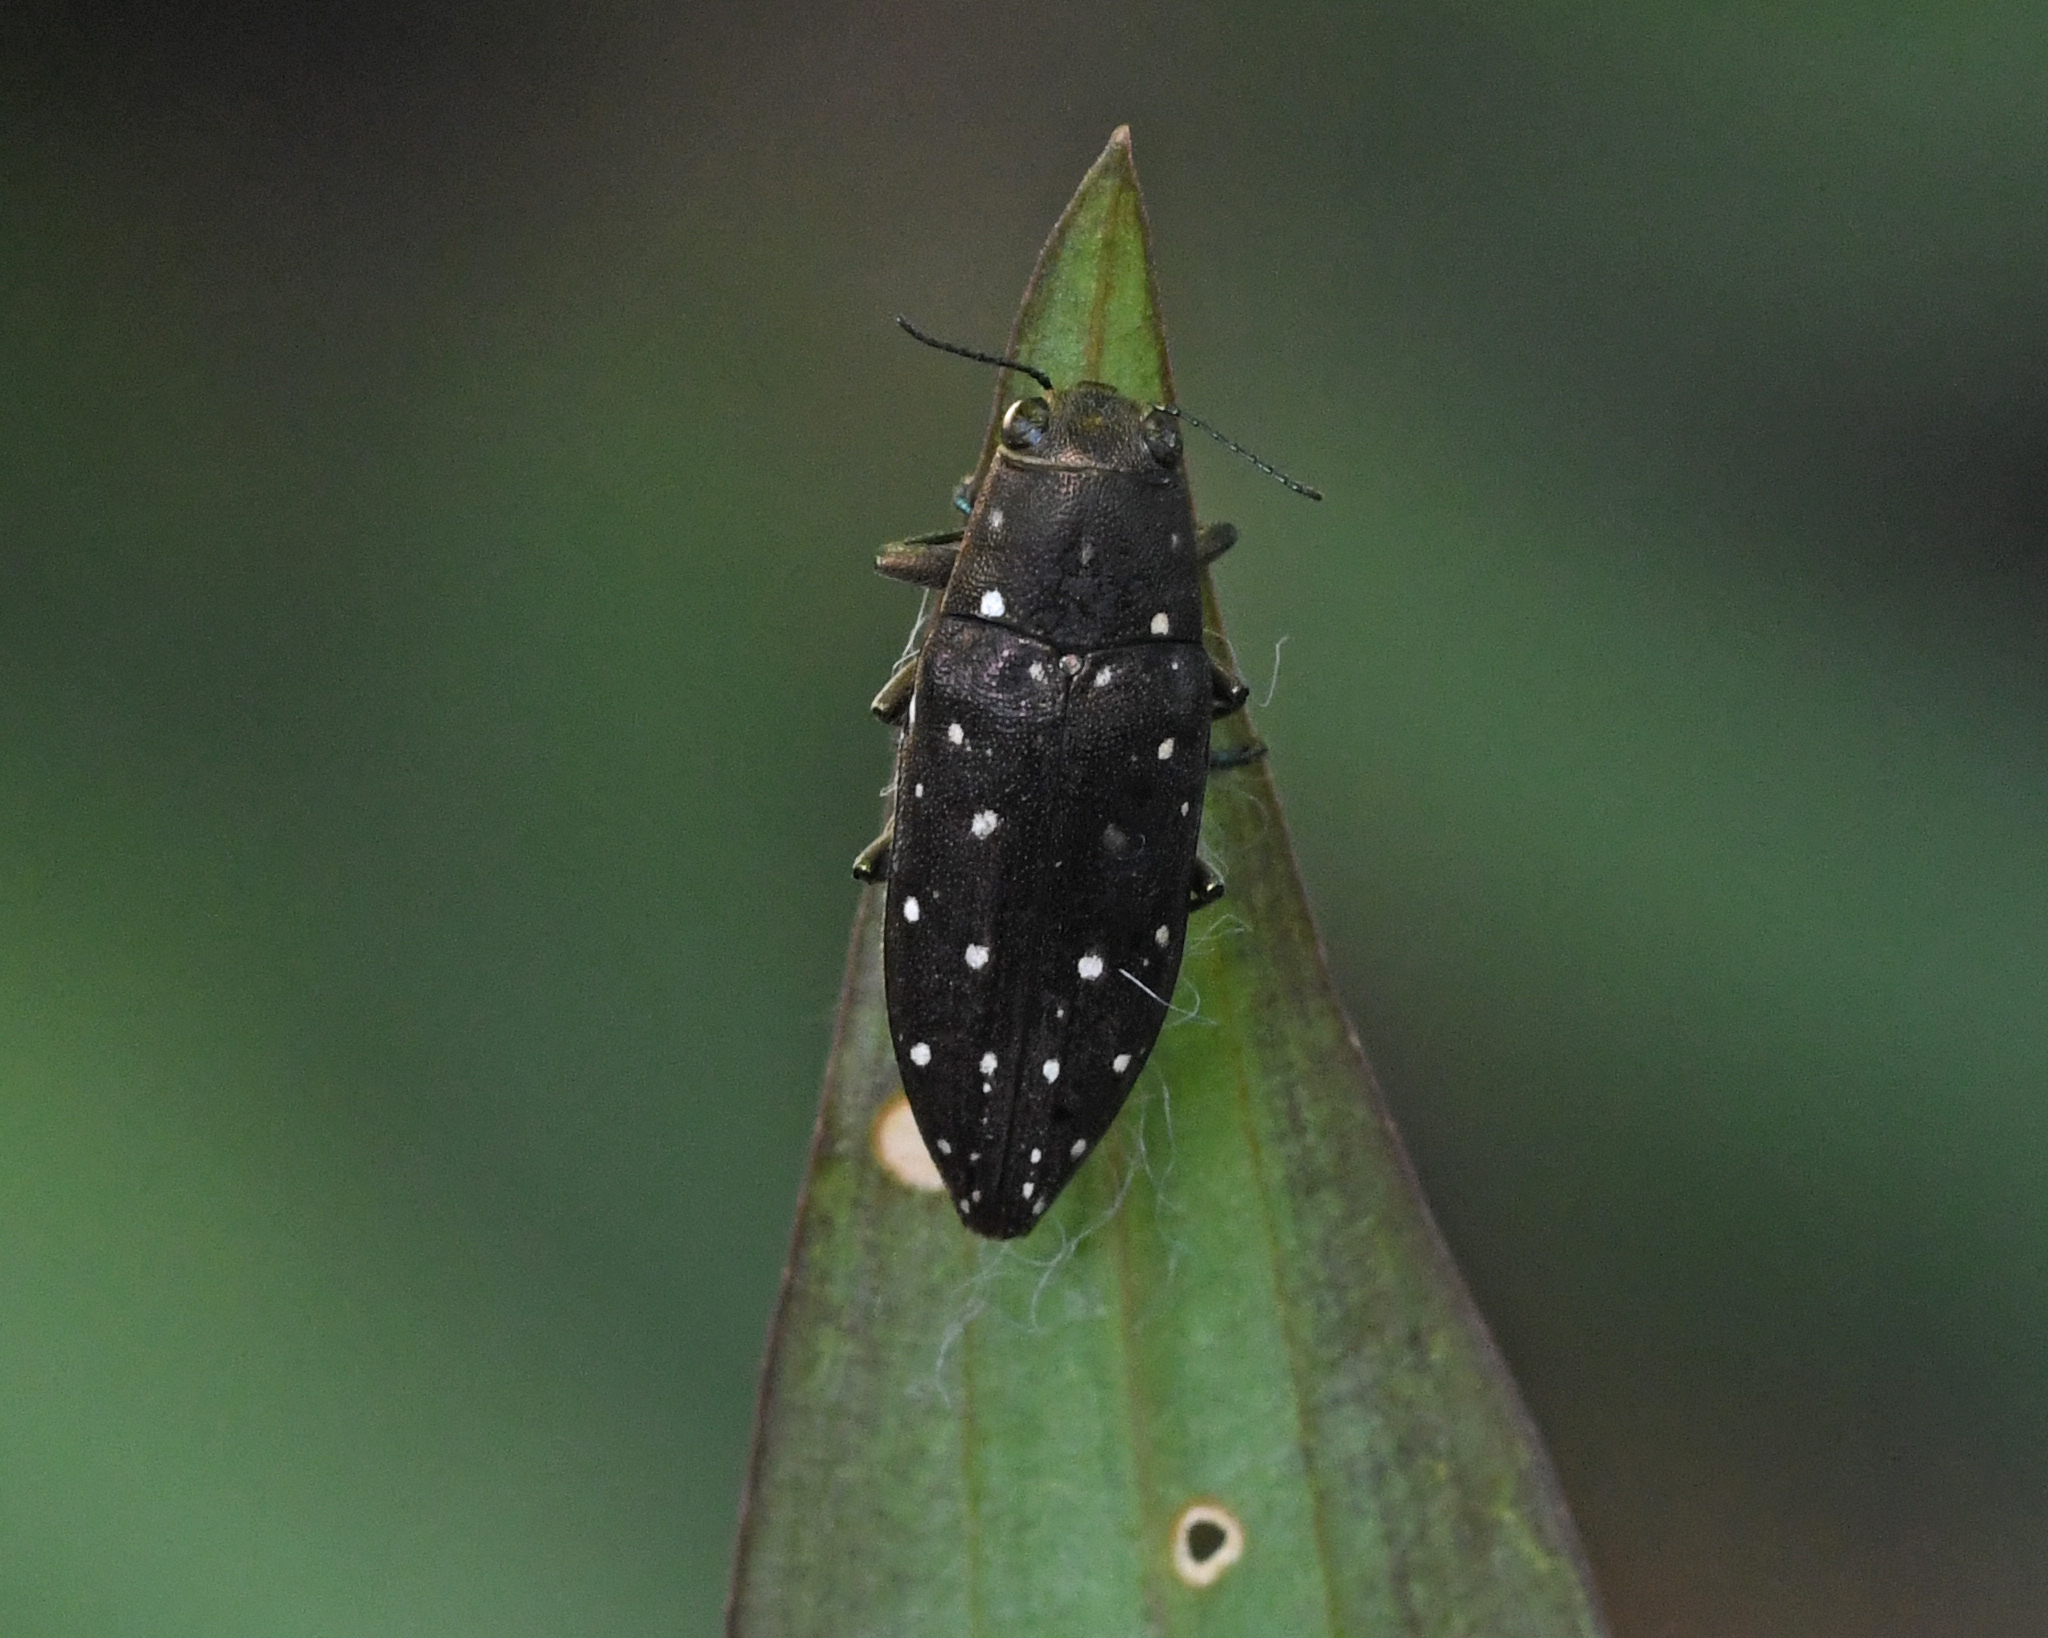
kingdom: Animalia
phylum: Arthropoda
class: Insecta
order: Coleoptera
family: Buprestidae
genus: Spectralia
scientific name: Spectralia albonotata
